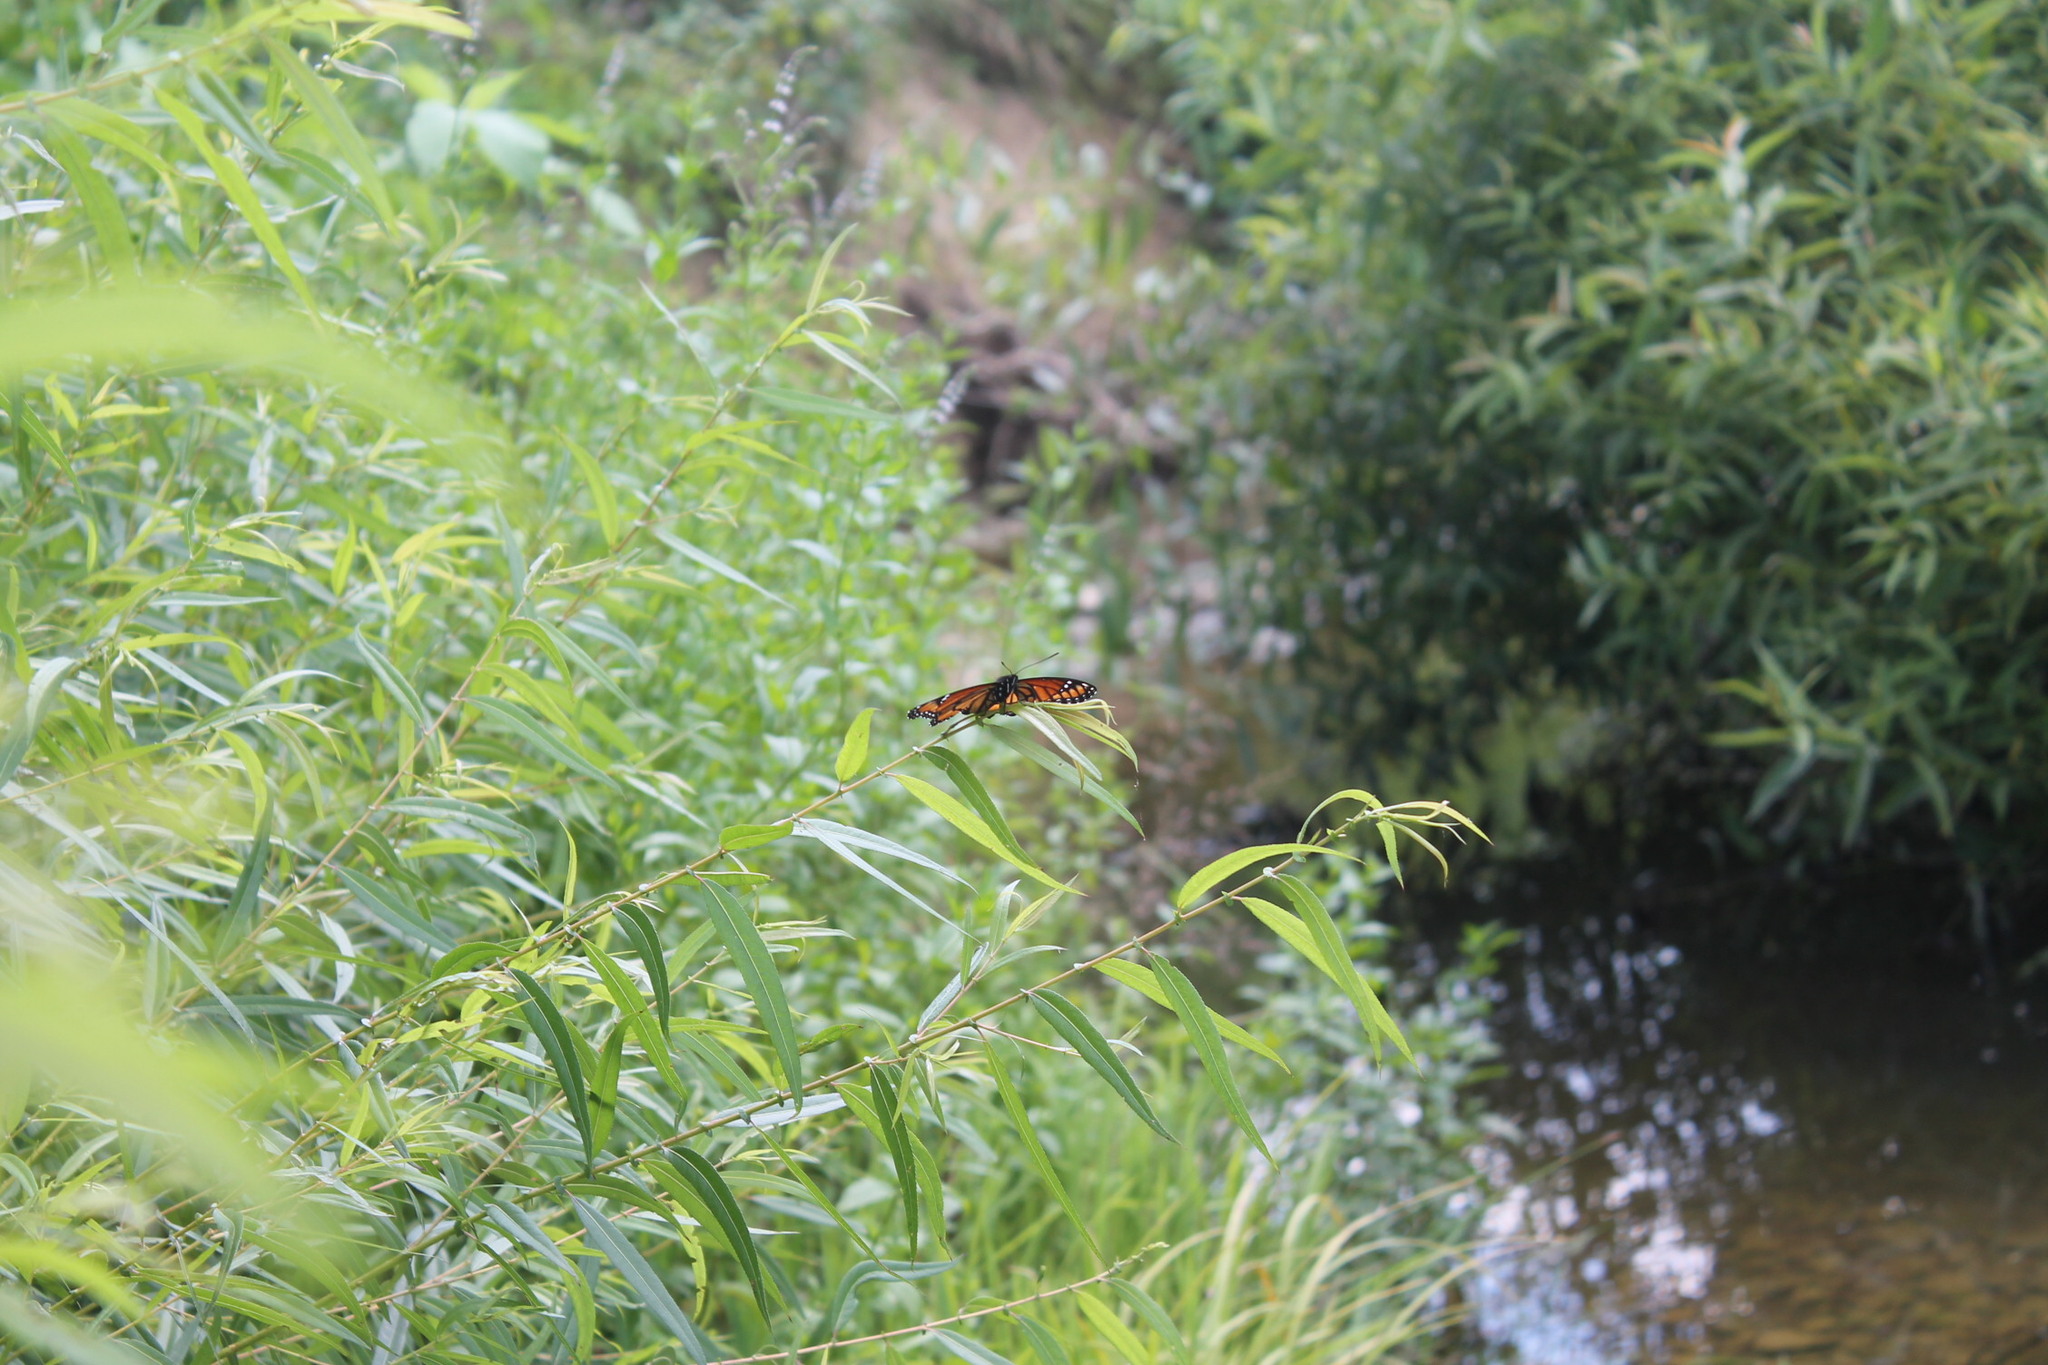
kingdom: Animalia
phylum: Arthropoda
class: Insecta
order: Lepidoptera
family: Nymphalidae
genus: Limenitis
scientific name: Limenitis archippus
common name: Viceroy
